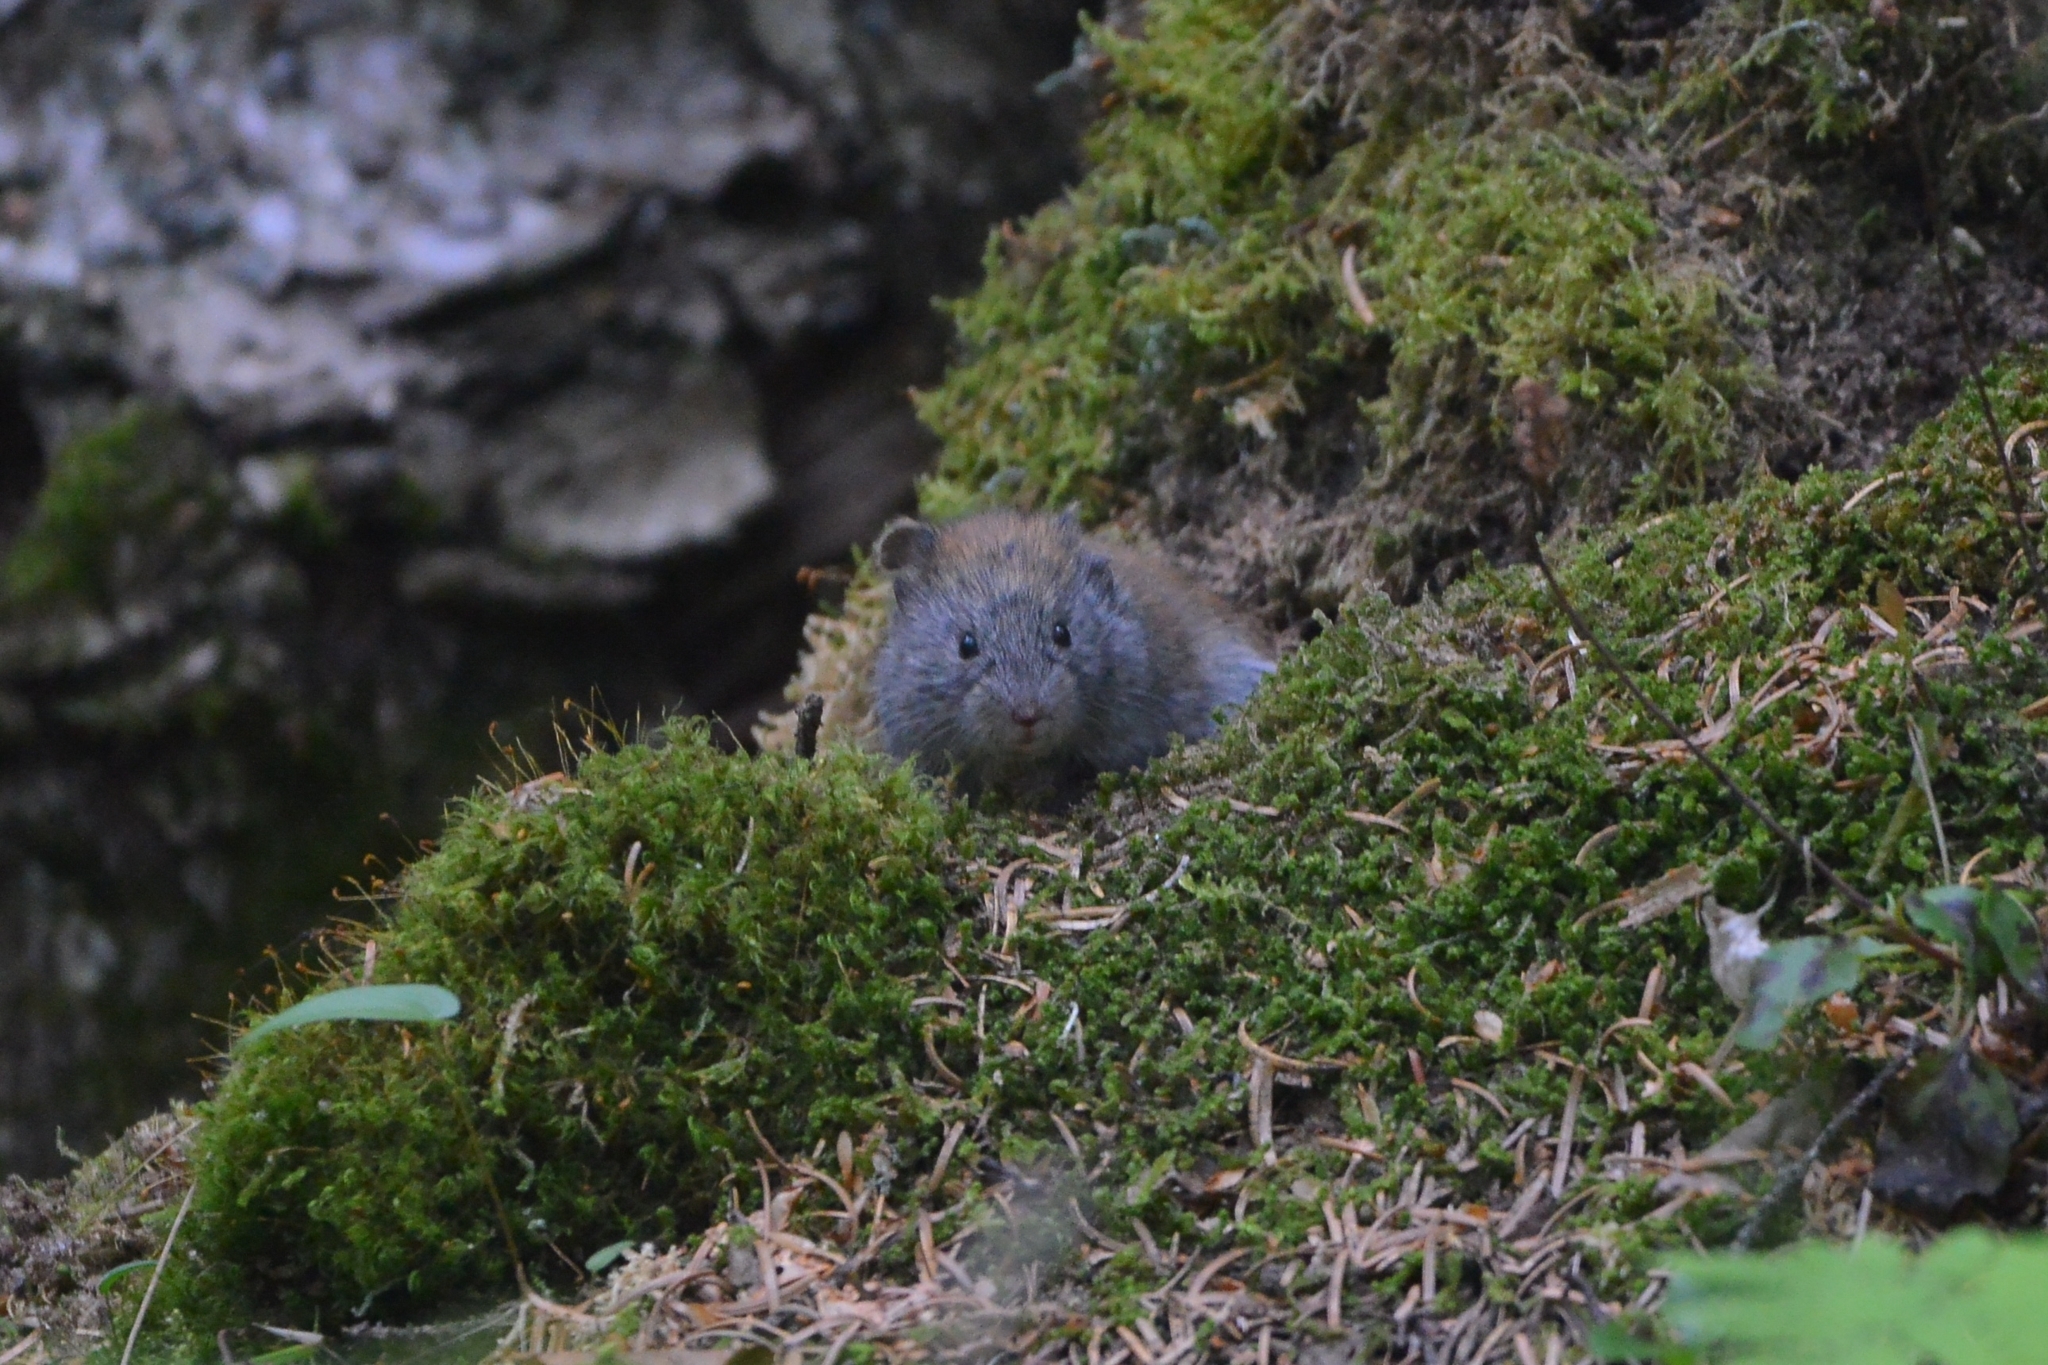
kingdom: Animalia
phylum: Chordata
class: Mammalia
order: Rodentia
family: Cricetidae
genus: Myodes
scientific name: Myodes rufocanus
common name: Gray red-backed vole
